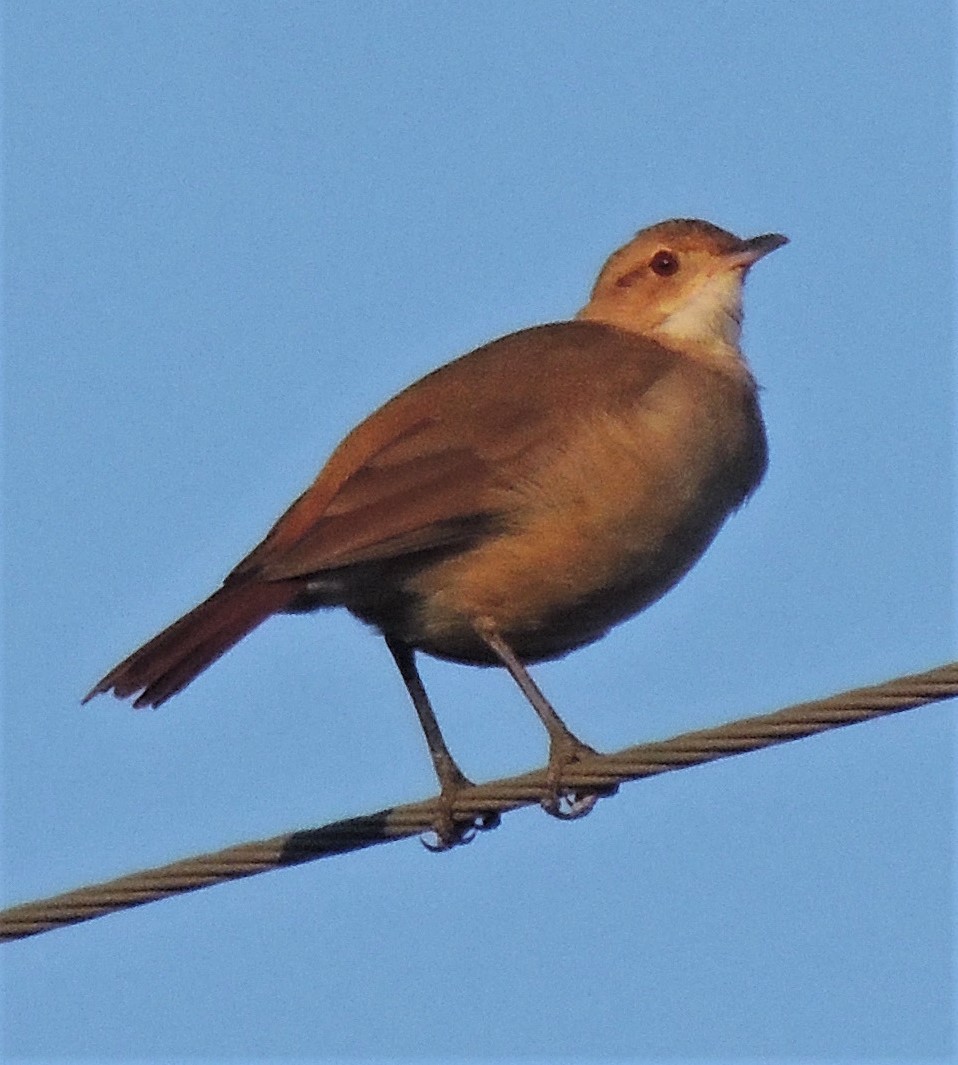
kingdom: Animalia
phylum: Chordata
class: Aves
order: Passeriformes
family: Furnariidae
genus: Furnarius
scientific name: Furnarius rufus
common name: Rufous hornero
